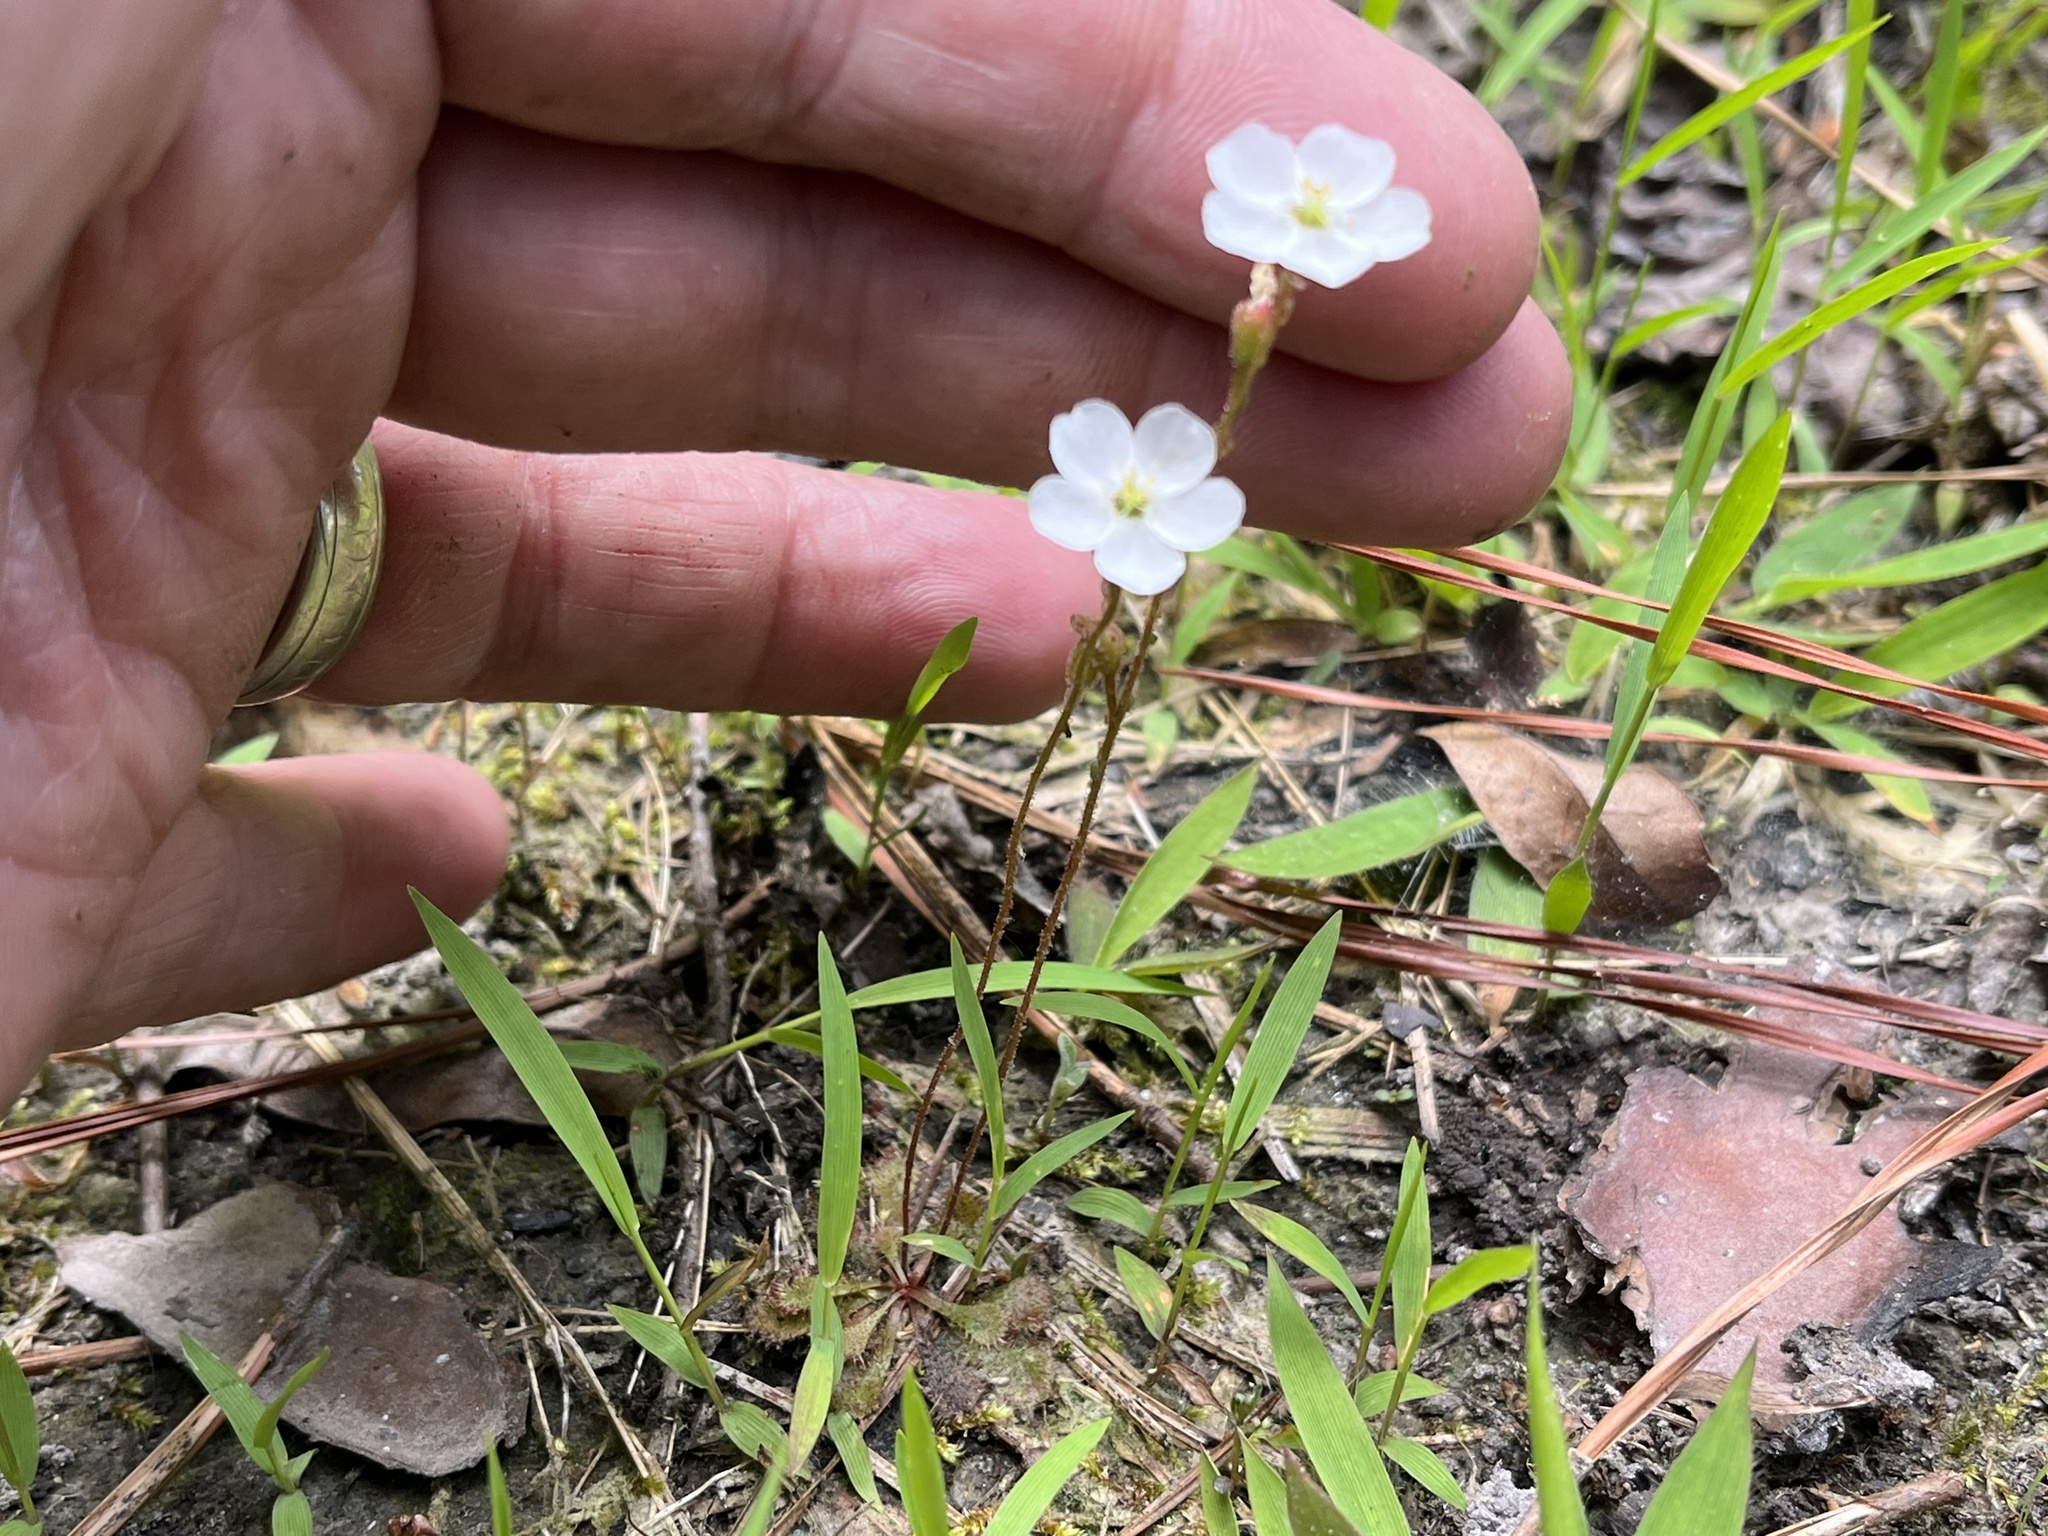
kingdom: Plantae
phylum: Tracheophyta
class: Magnoliopsida
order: Caryophyllales
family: Droseraceae
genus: Drosera
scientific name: Drosera brevifolia
